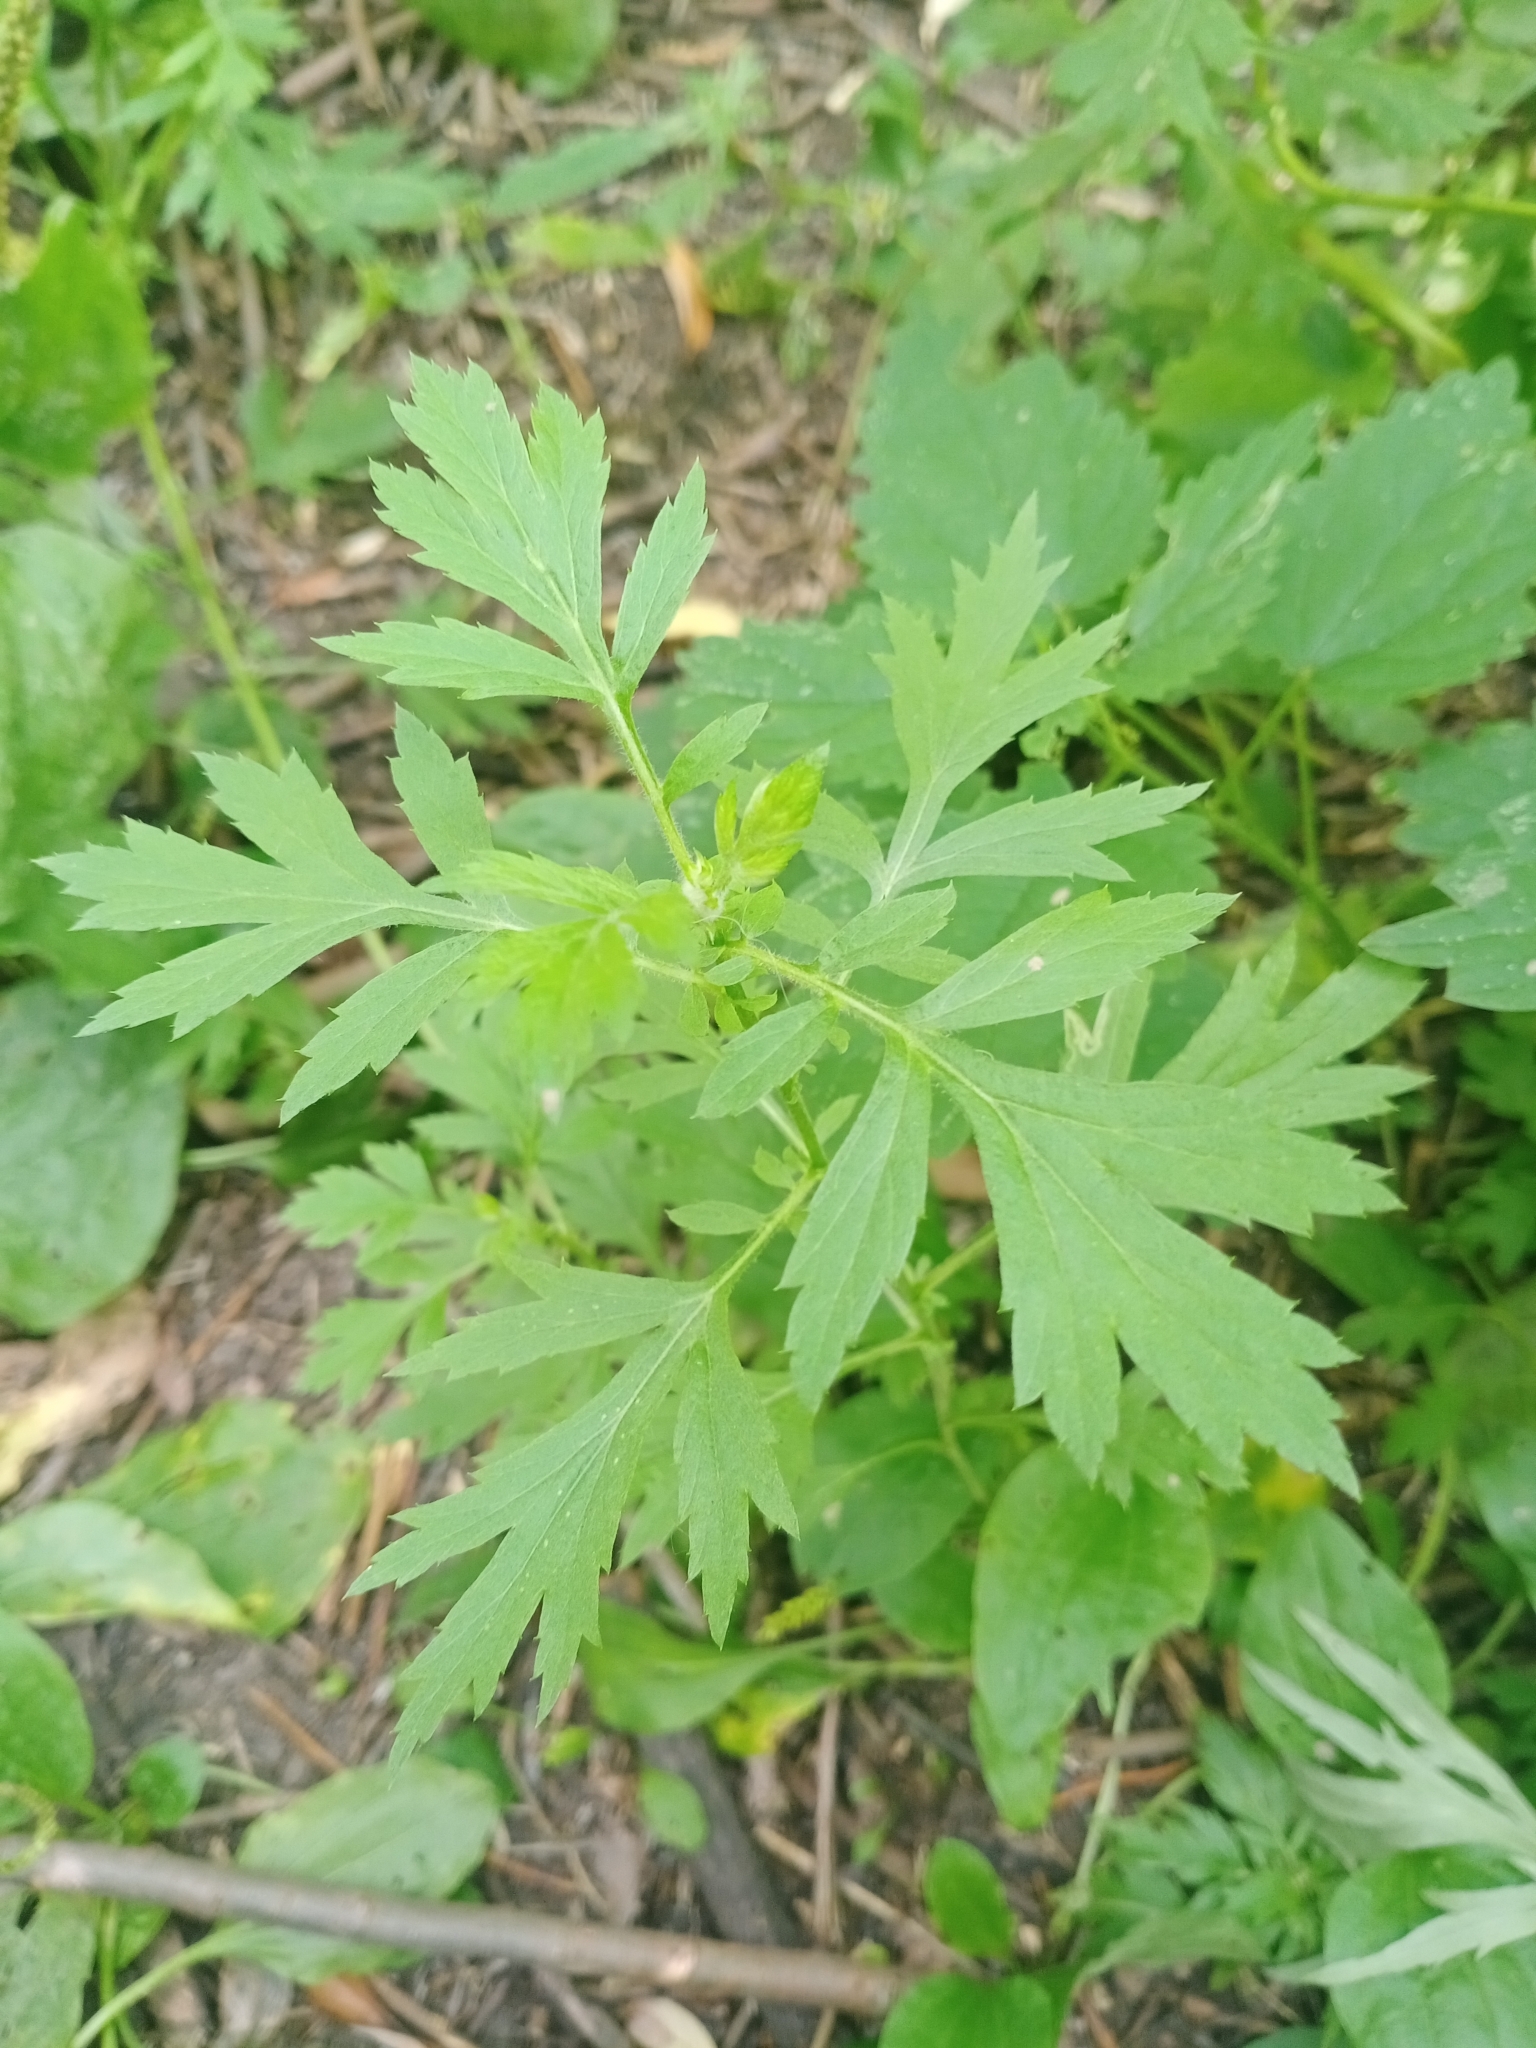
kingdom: Plantae
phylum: Tracheophyta
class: Magnoliopsida
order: Asterales
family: Asteraceae
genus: Artemisia
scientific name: Artemisia vulgaris
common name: Mugwort
